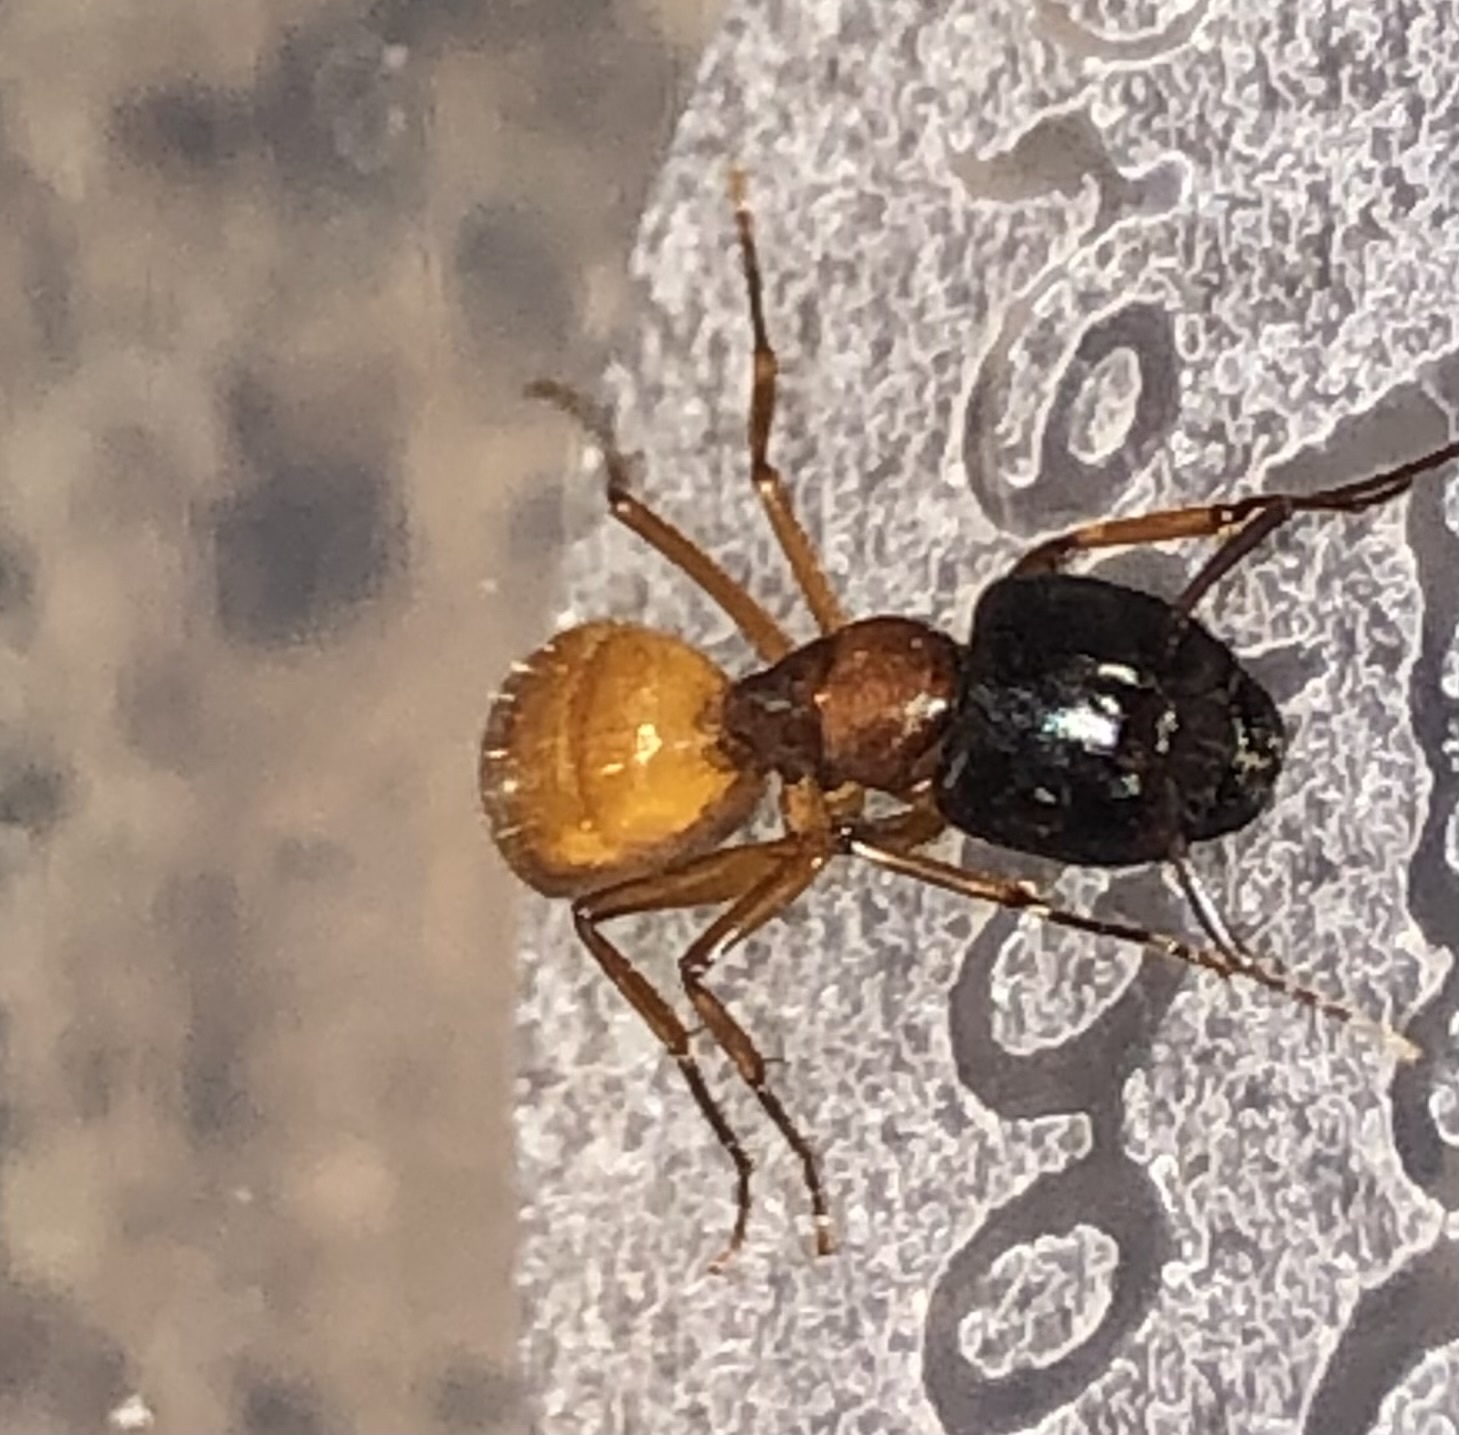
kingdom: Animalia
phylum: Arthropoda
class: Insecta
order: Hymenoptera
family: Formicidae
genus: Camponotus
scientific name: Camponotus sansabeanus
